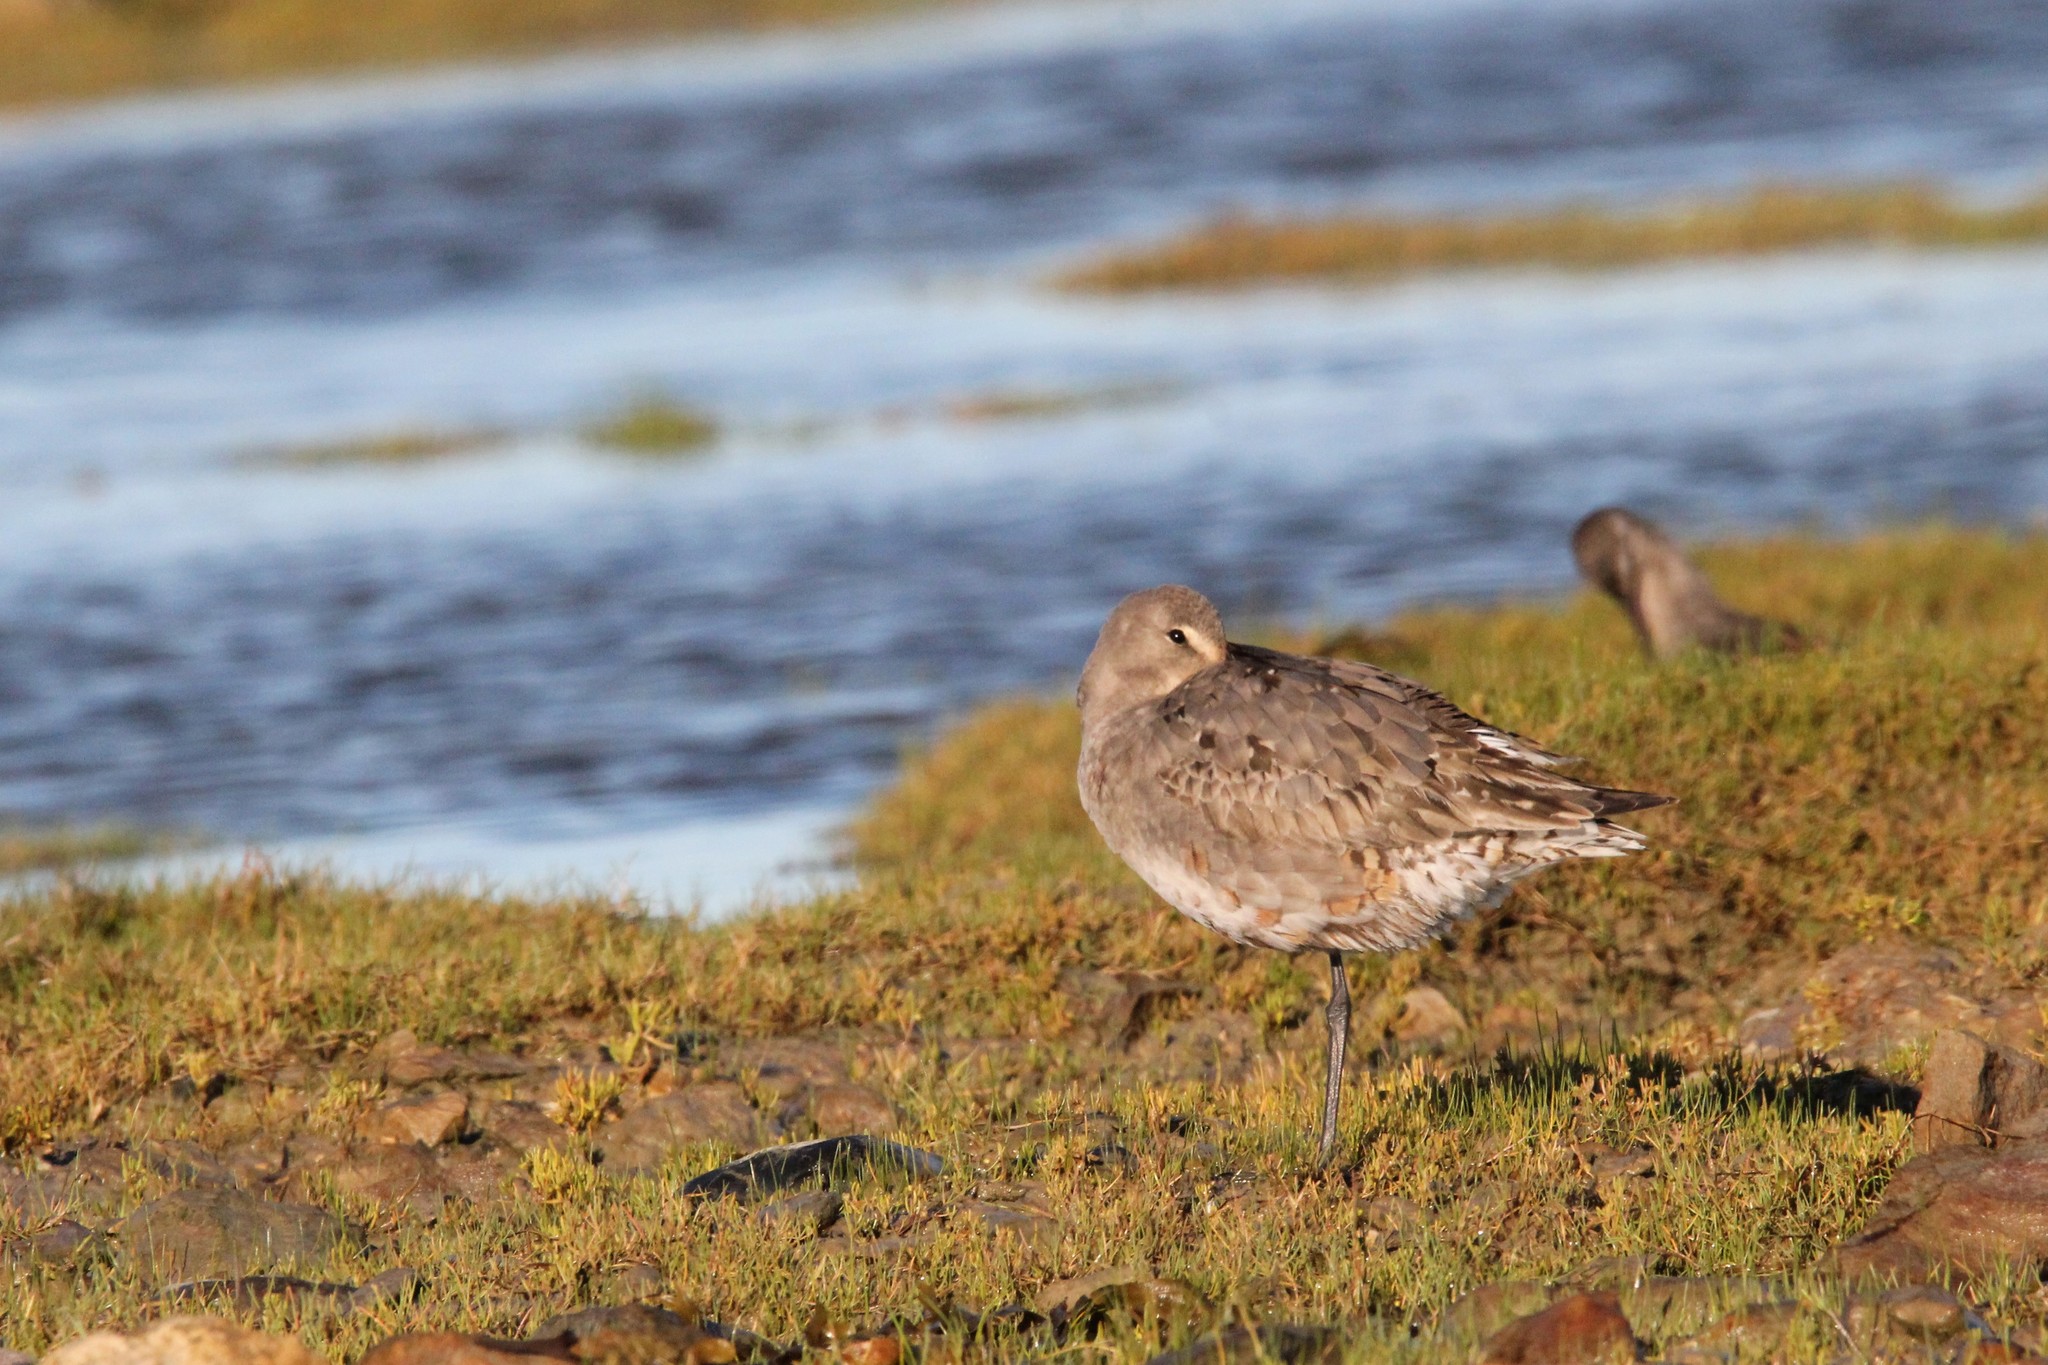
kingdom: Animalia
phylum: Chordata
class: Aves
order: Charadriiformes
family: Scolopacidae
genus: Limosa
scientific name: Limosa haemastica
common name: Hudsonian godwit
